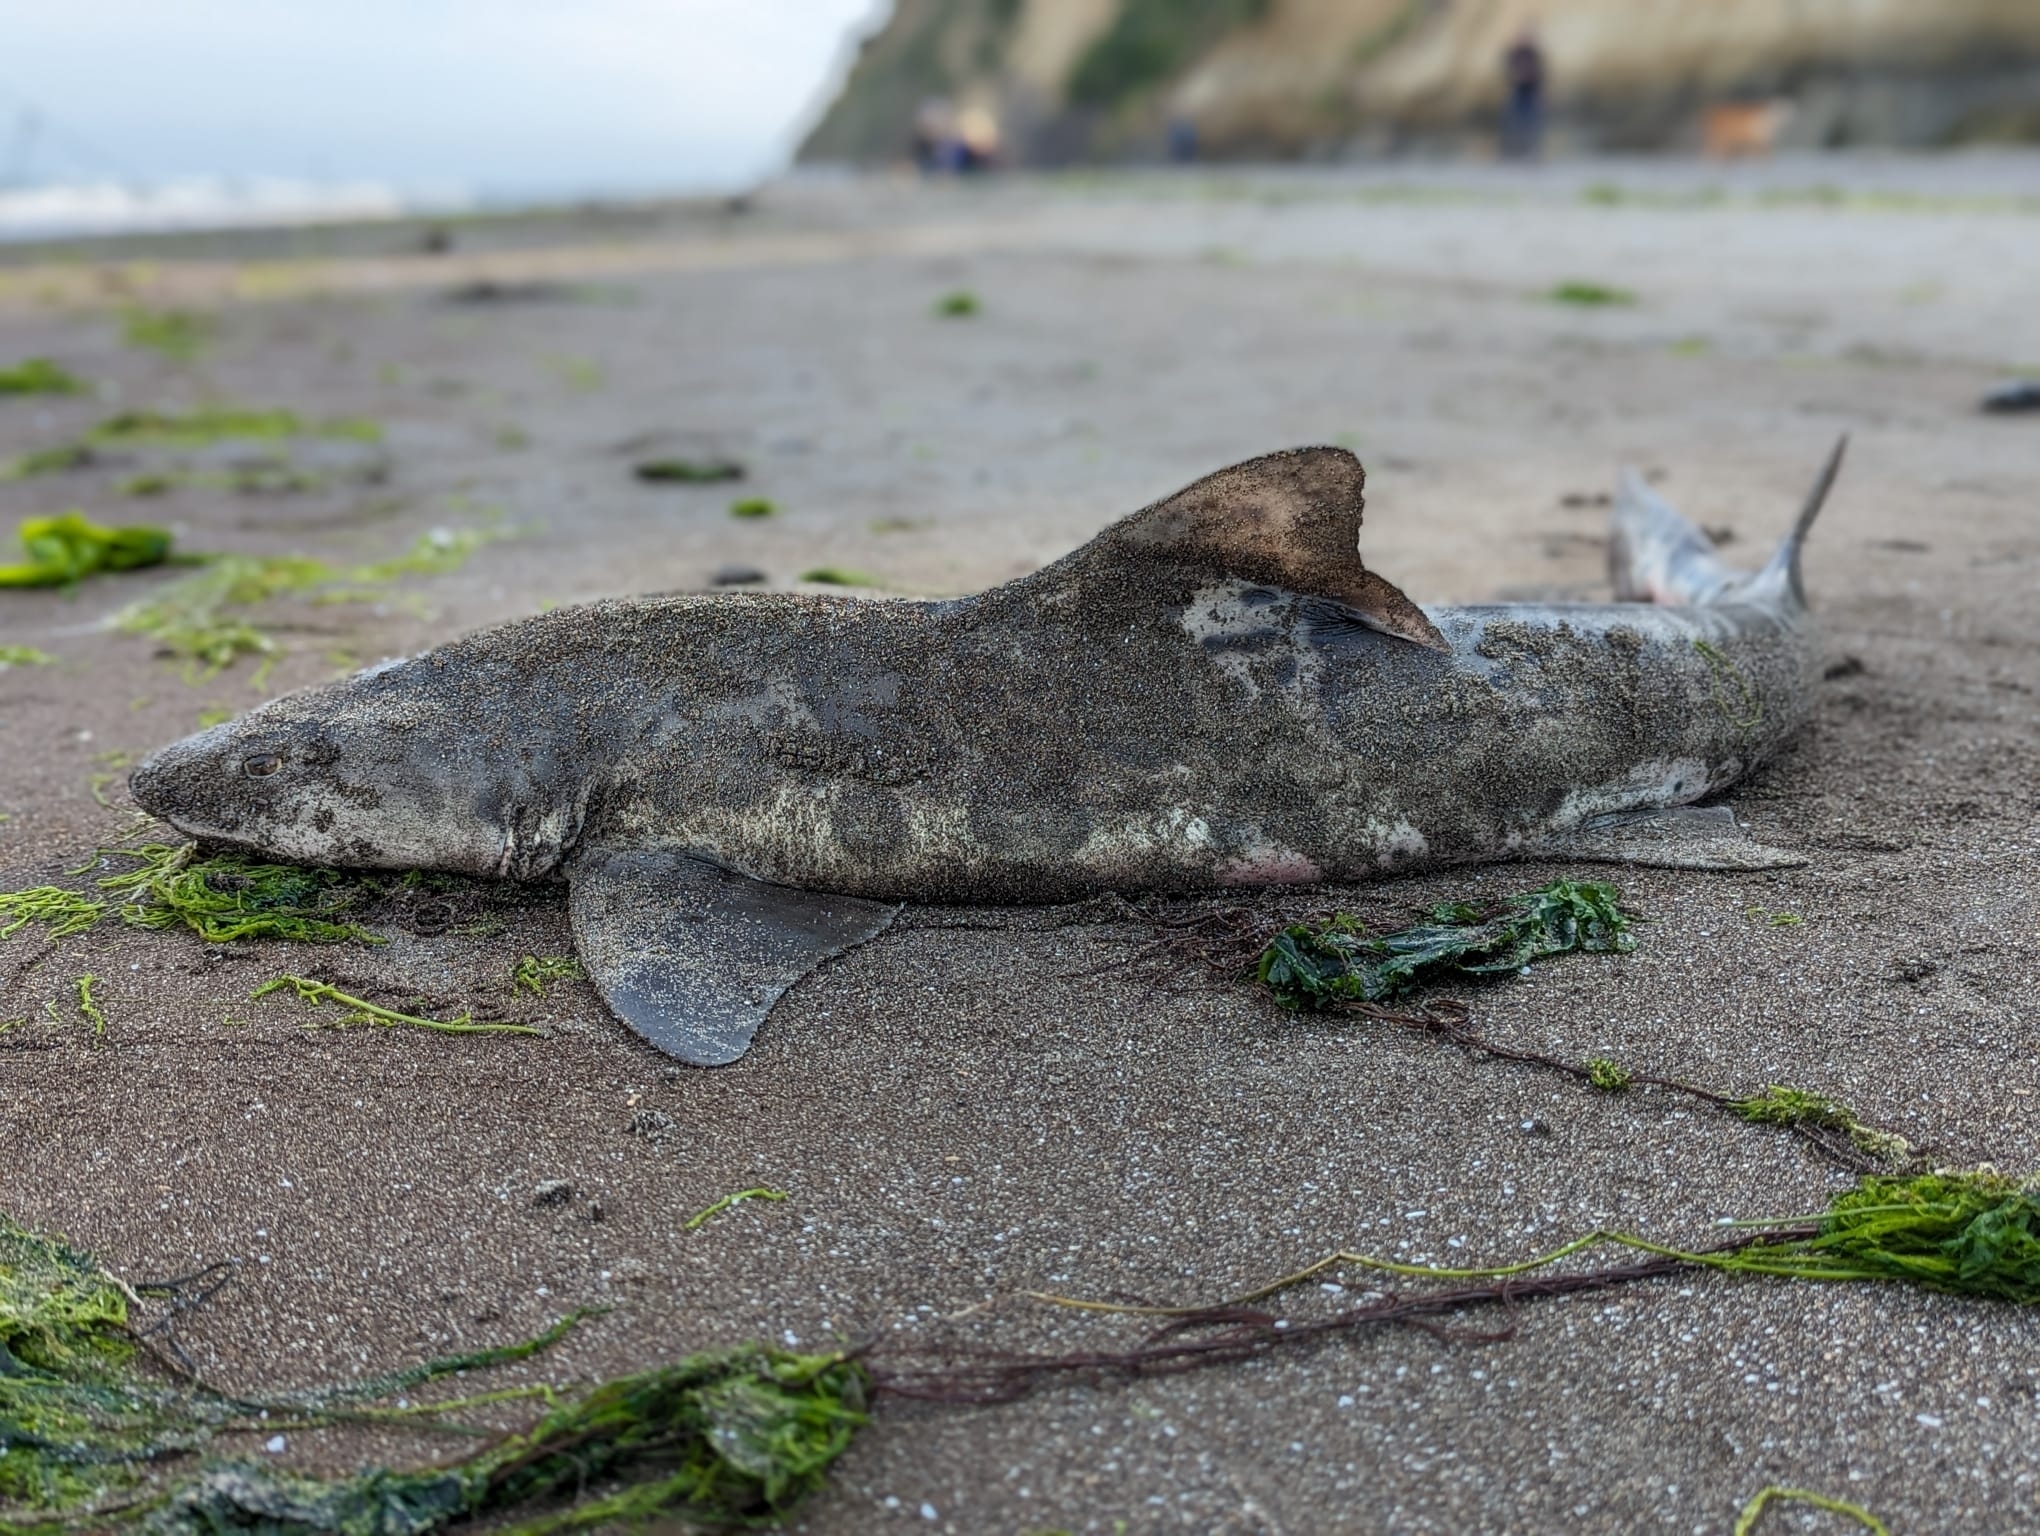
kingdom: Animalia
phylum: Chordata
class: Elasmobranchii
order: Carcharhiniformes
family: Triakidae
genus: Triakis
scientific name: Triakis semifasciata
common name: Leopard shark
